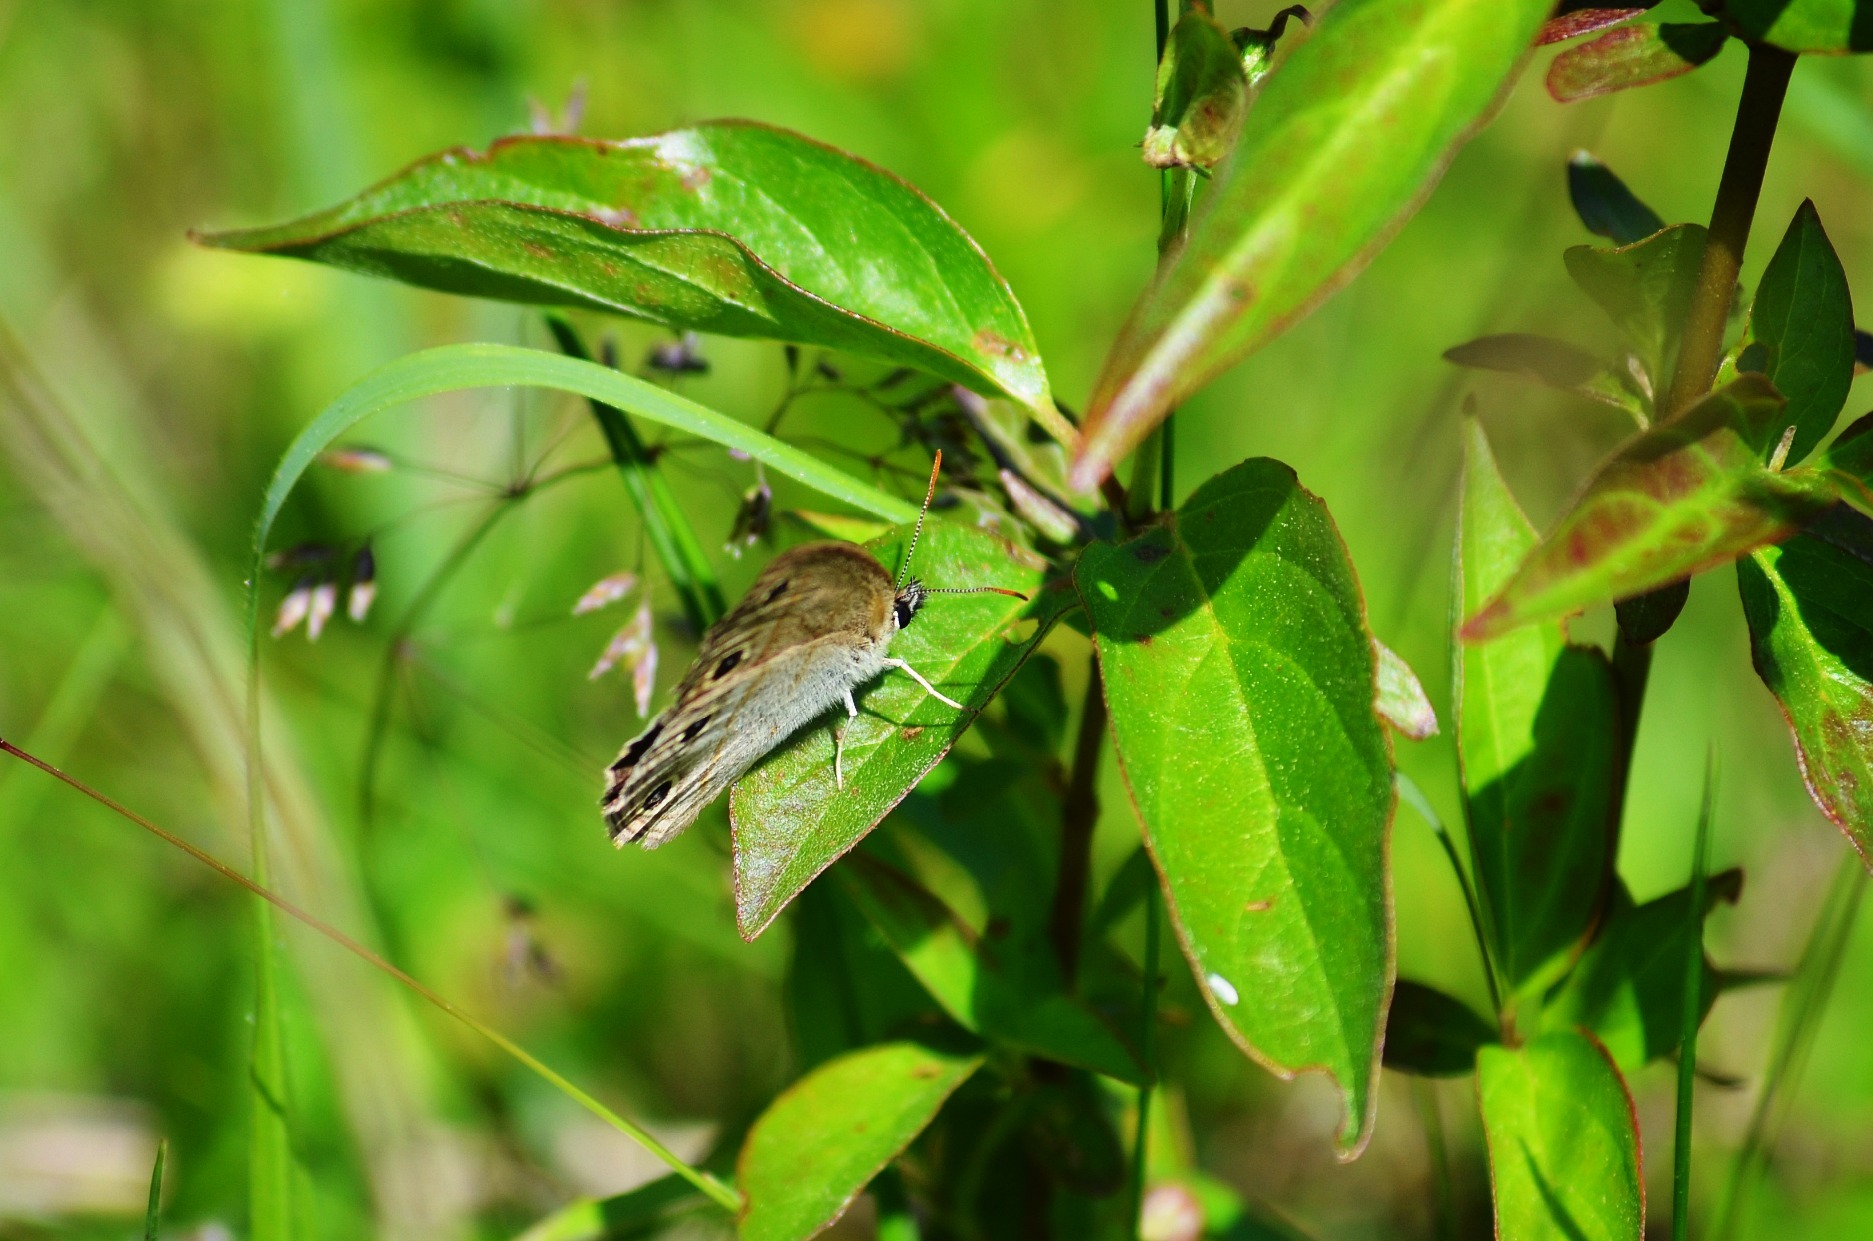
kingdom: Animalia
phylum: Arthropoda
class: Insecta
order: Lepidoptera
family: Nymphalidae
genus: Euptychia
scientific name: Euptychia cymela
